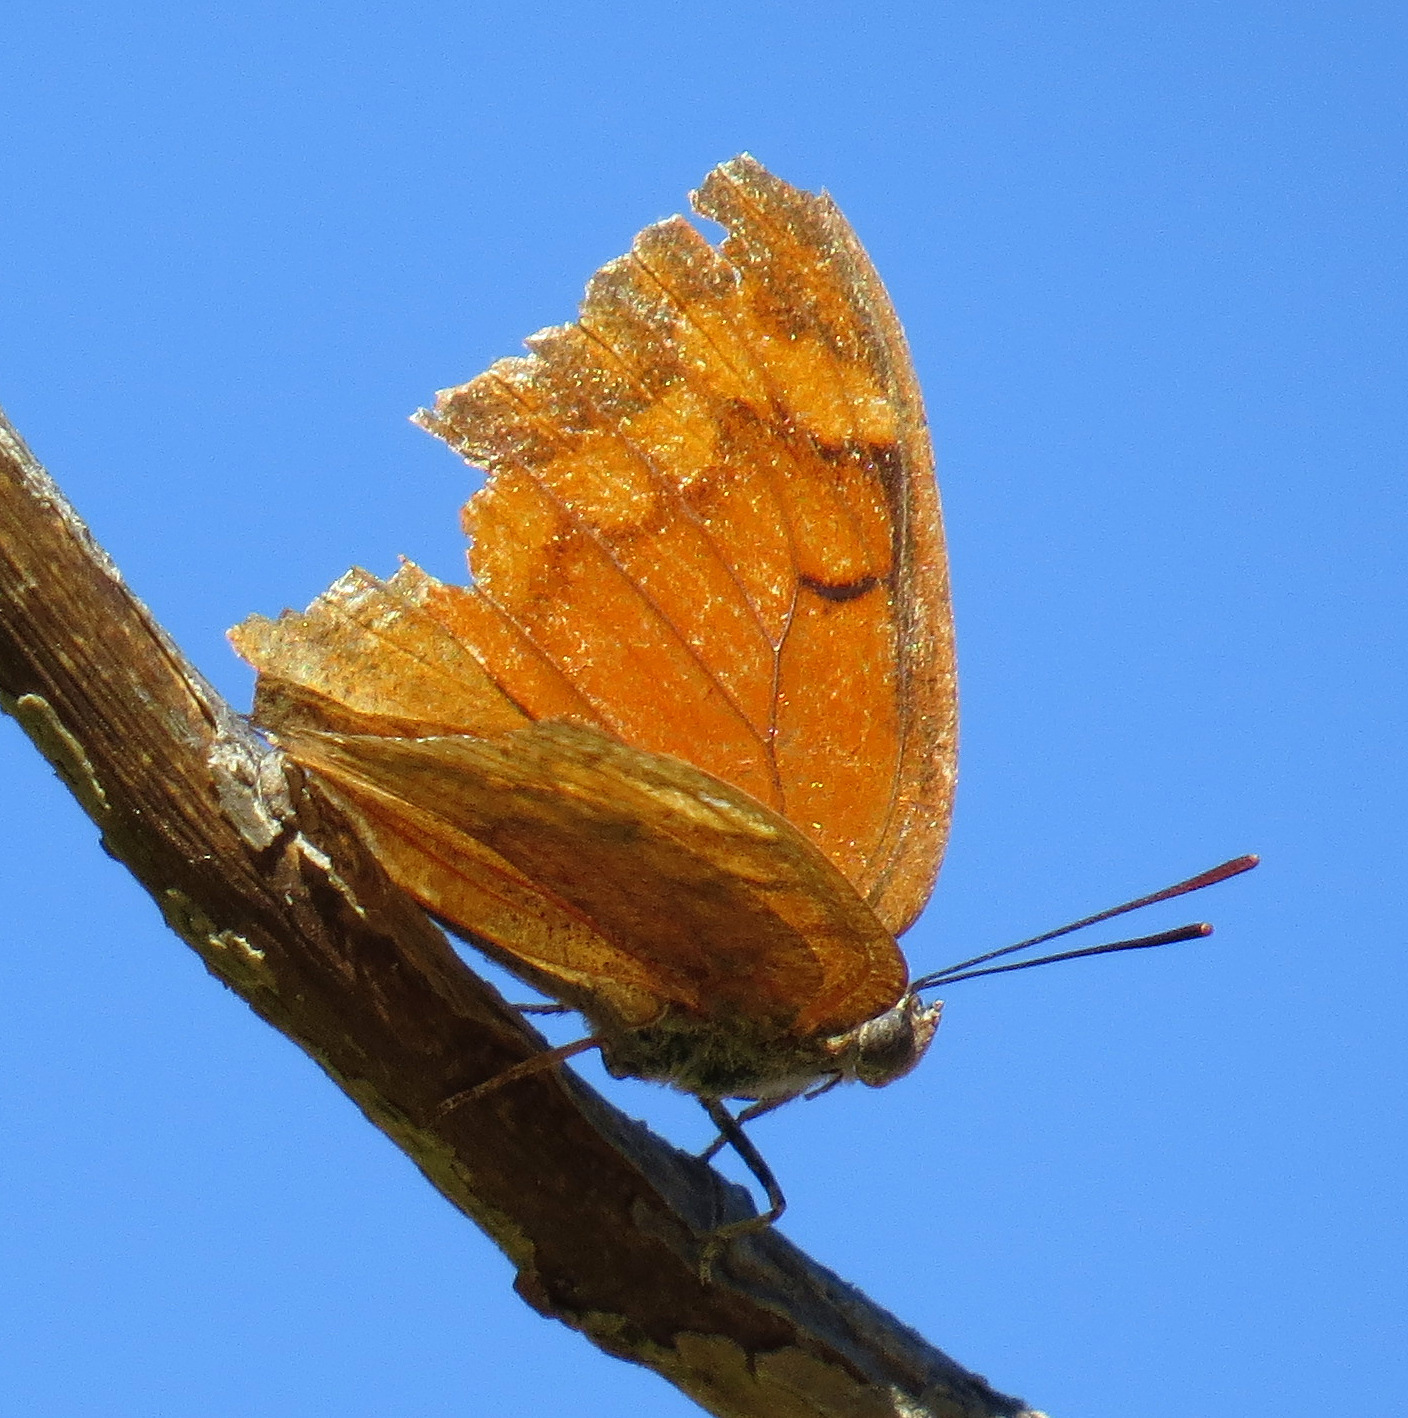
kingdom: Animalia
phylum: Arthropoda
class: Insecta
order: Lepidoptera
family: Nymphalidae
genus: Anaea
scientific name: Anaea aidea
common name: Tropical leafwing
